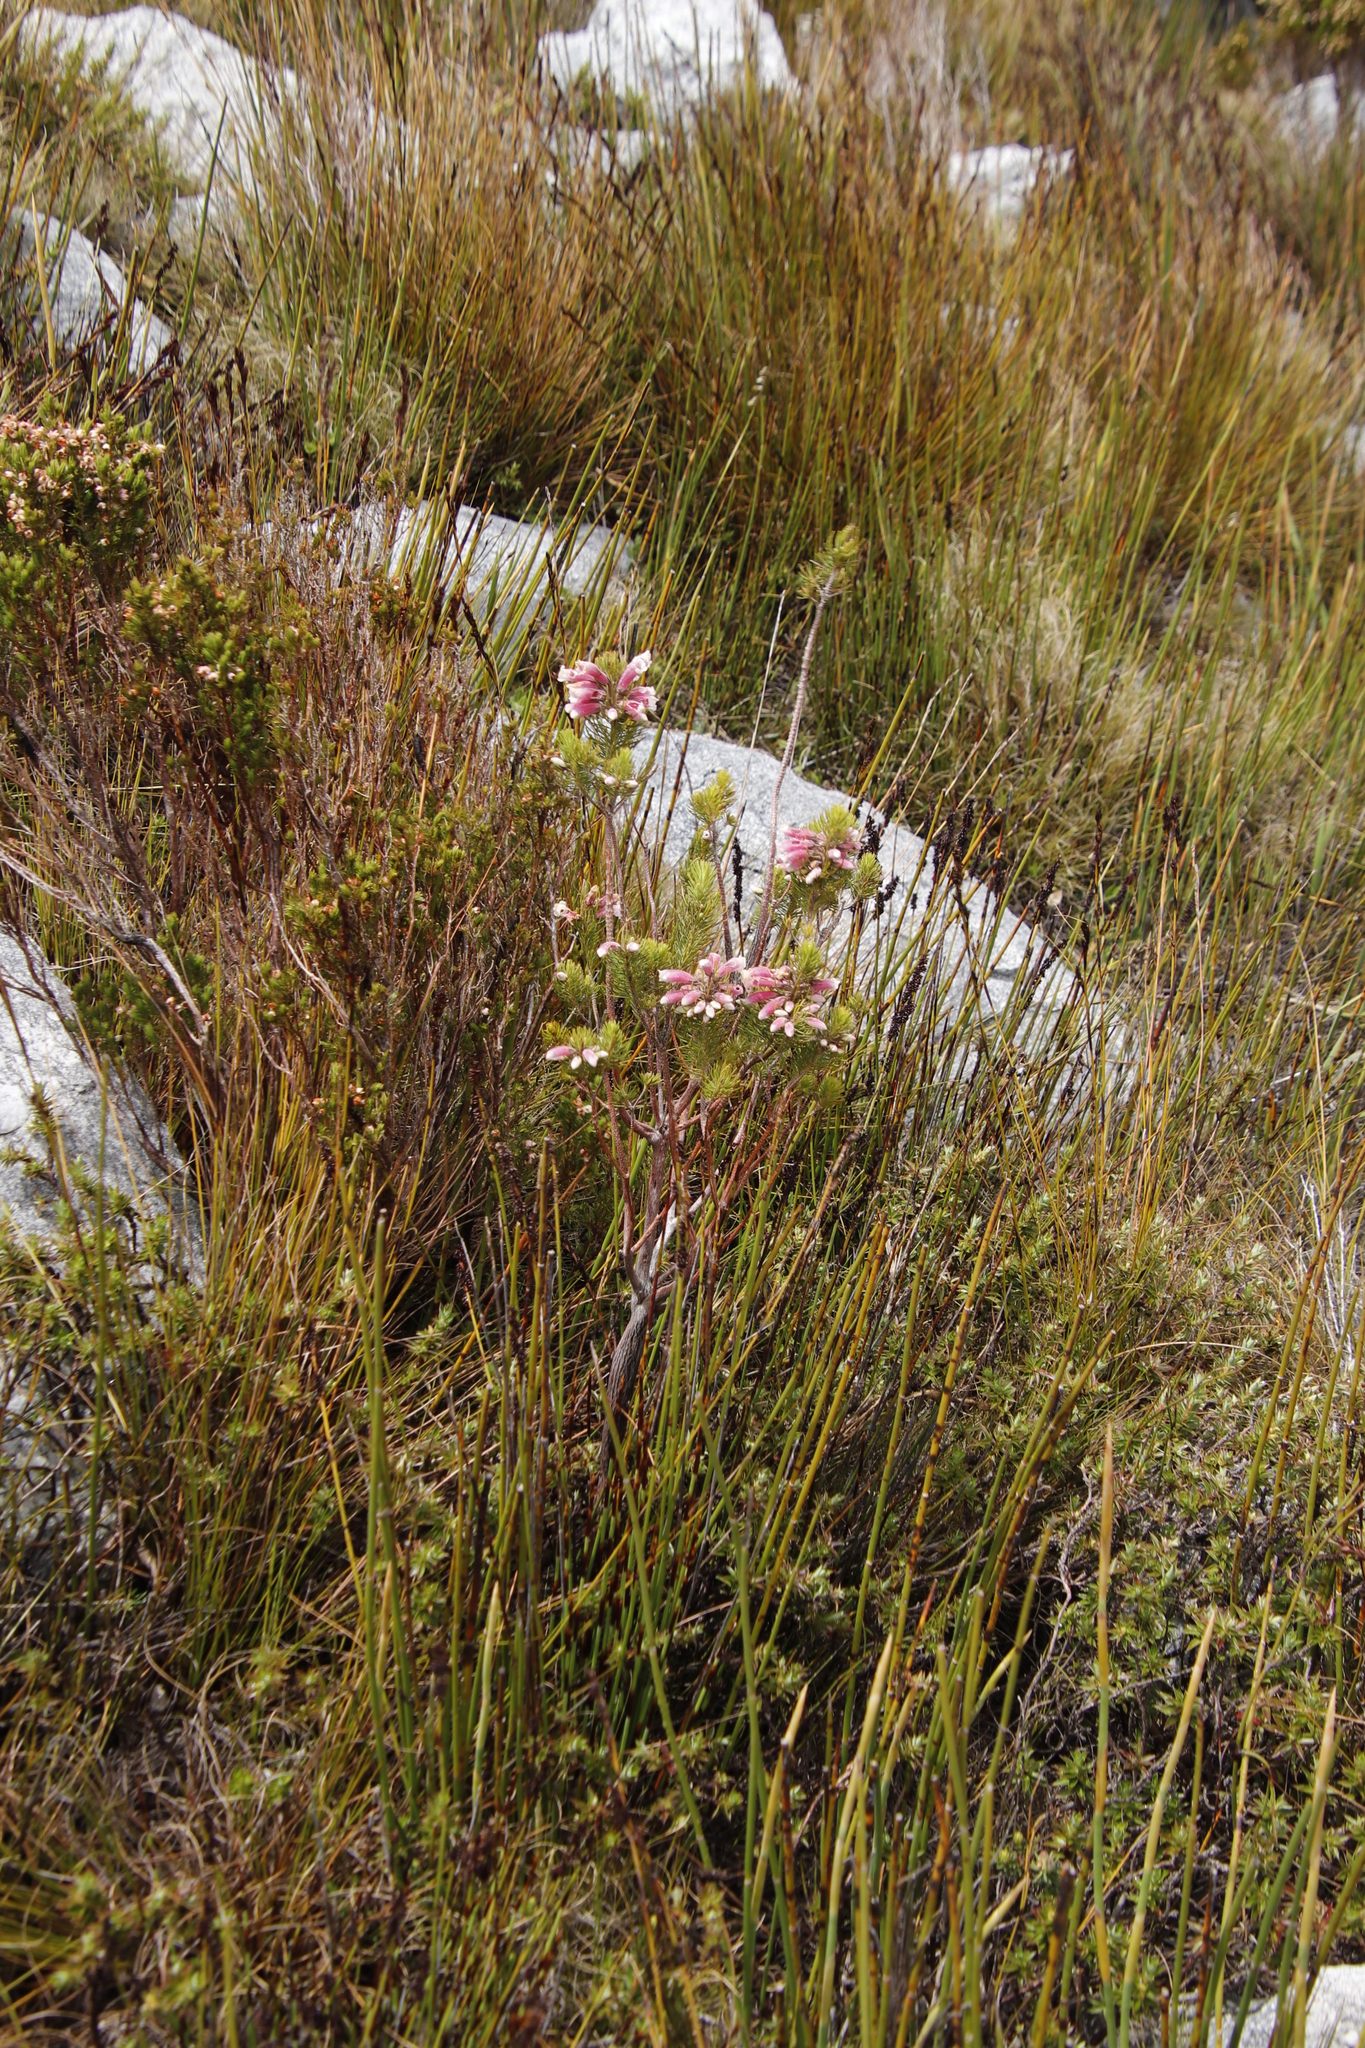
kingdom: Plantae
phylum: Tracheophyta
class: Magnoliopsida
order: Ericales
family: Ericaceae
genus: Erica
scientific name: Erica viscaria
